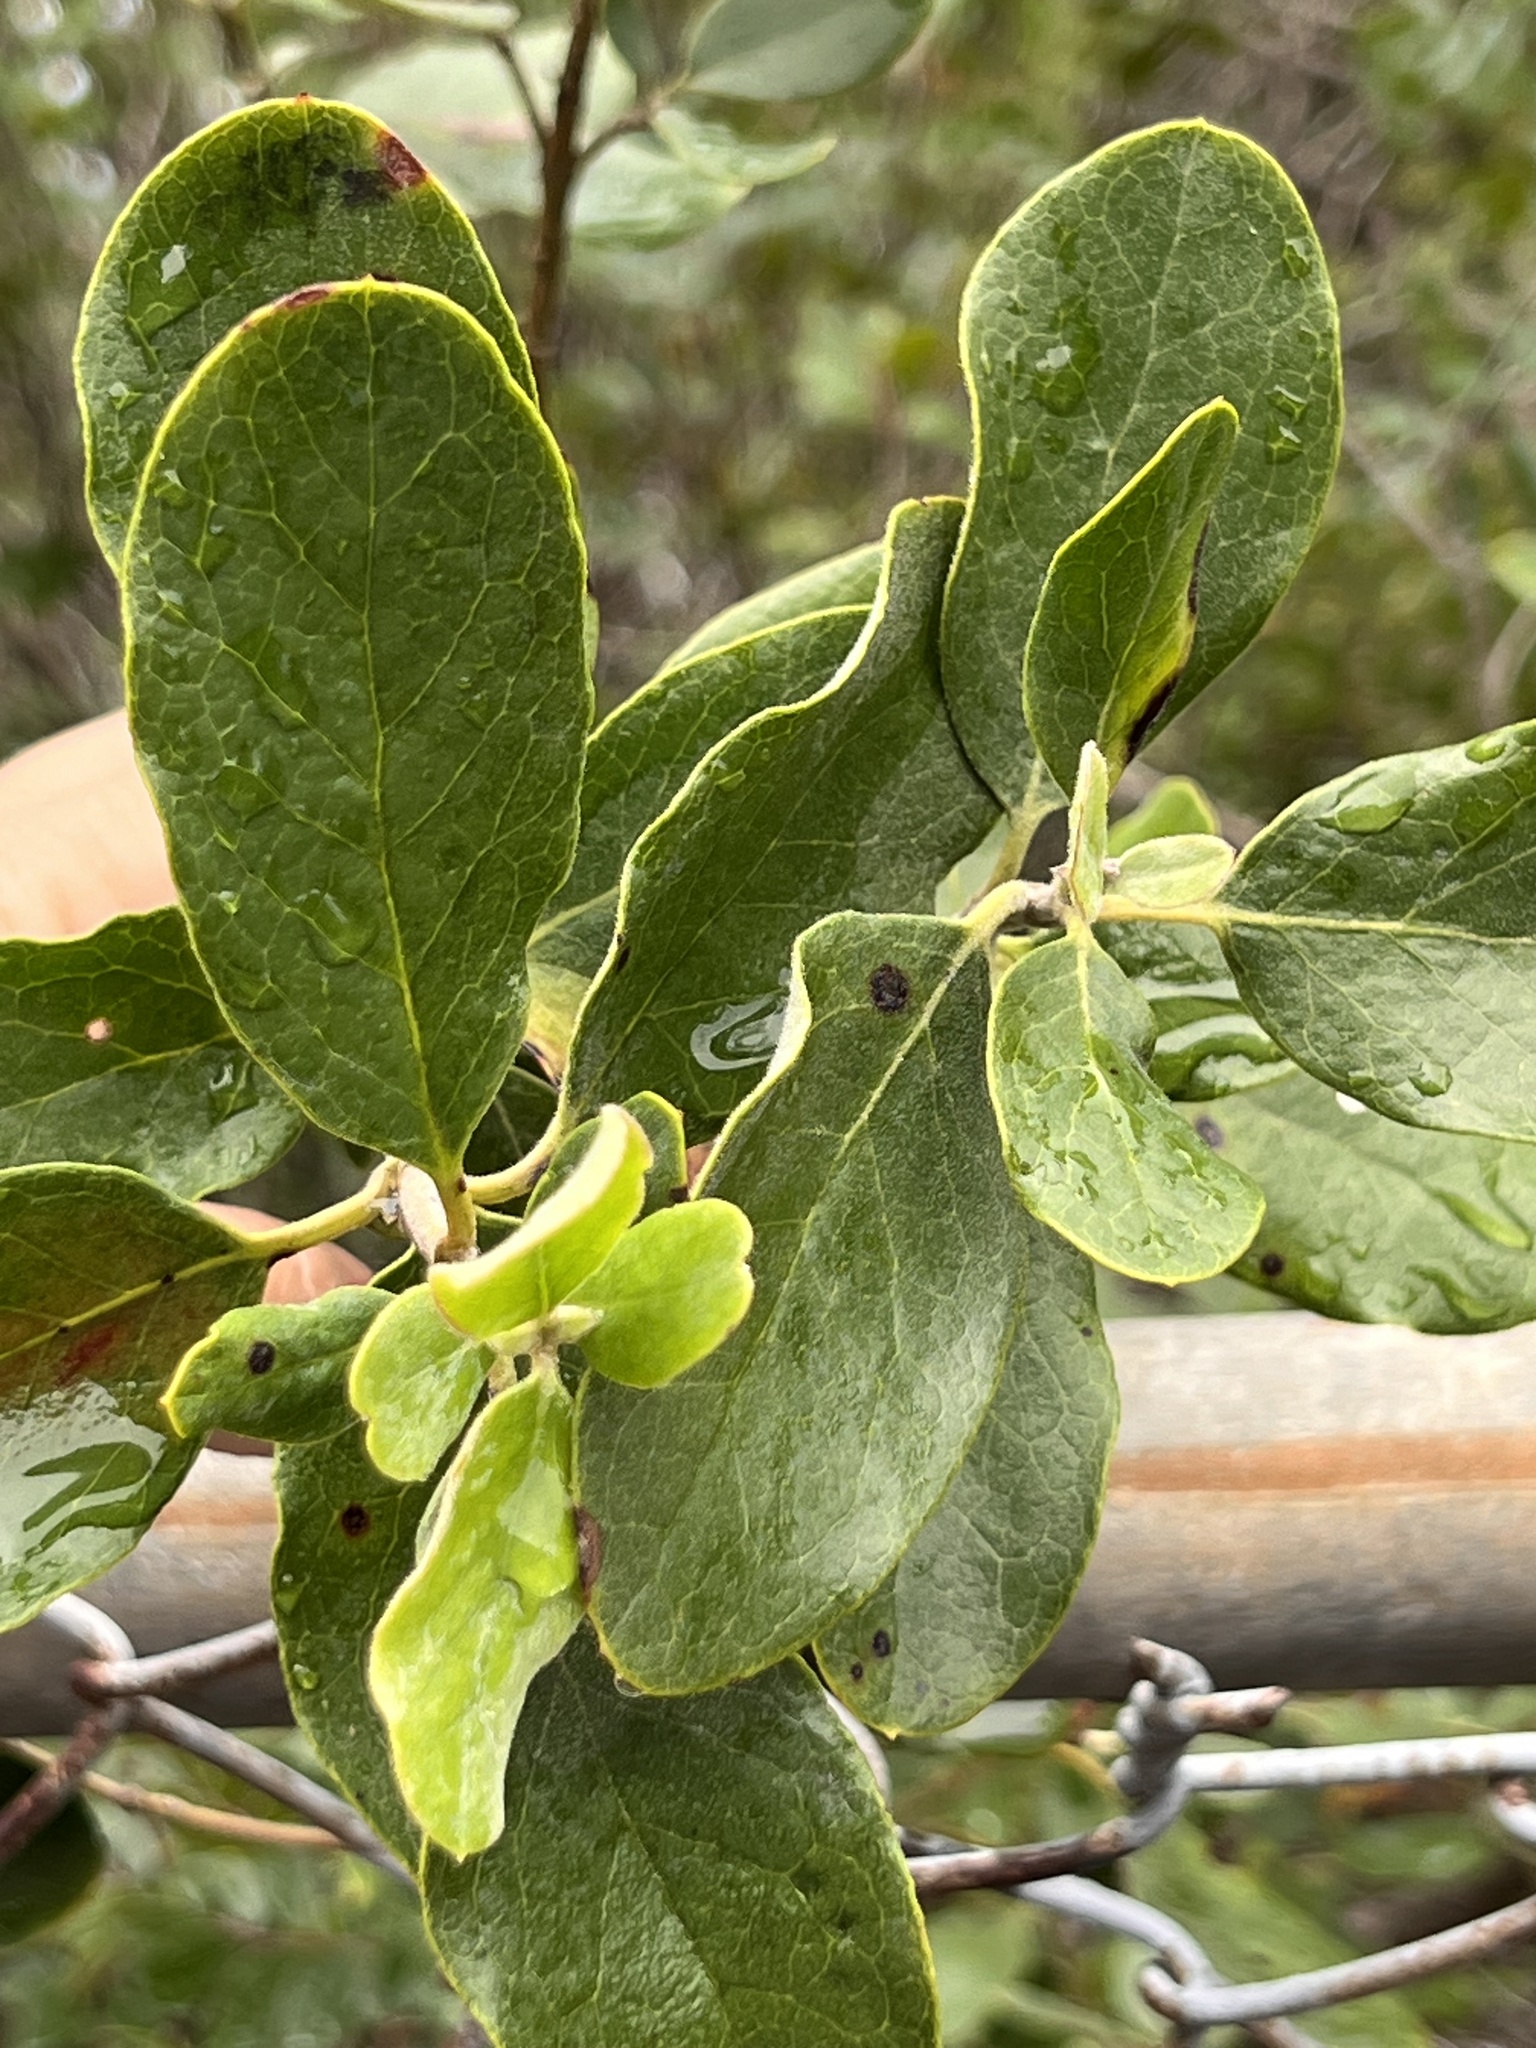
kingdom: Plantae
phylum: Tracheophyta
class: Magnoliopsida
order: Garryales
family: Garryaceae
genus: Garrya
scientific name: Garrya lindheimeri
